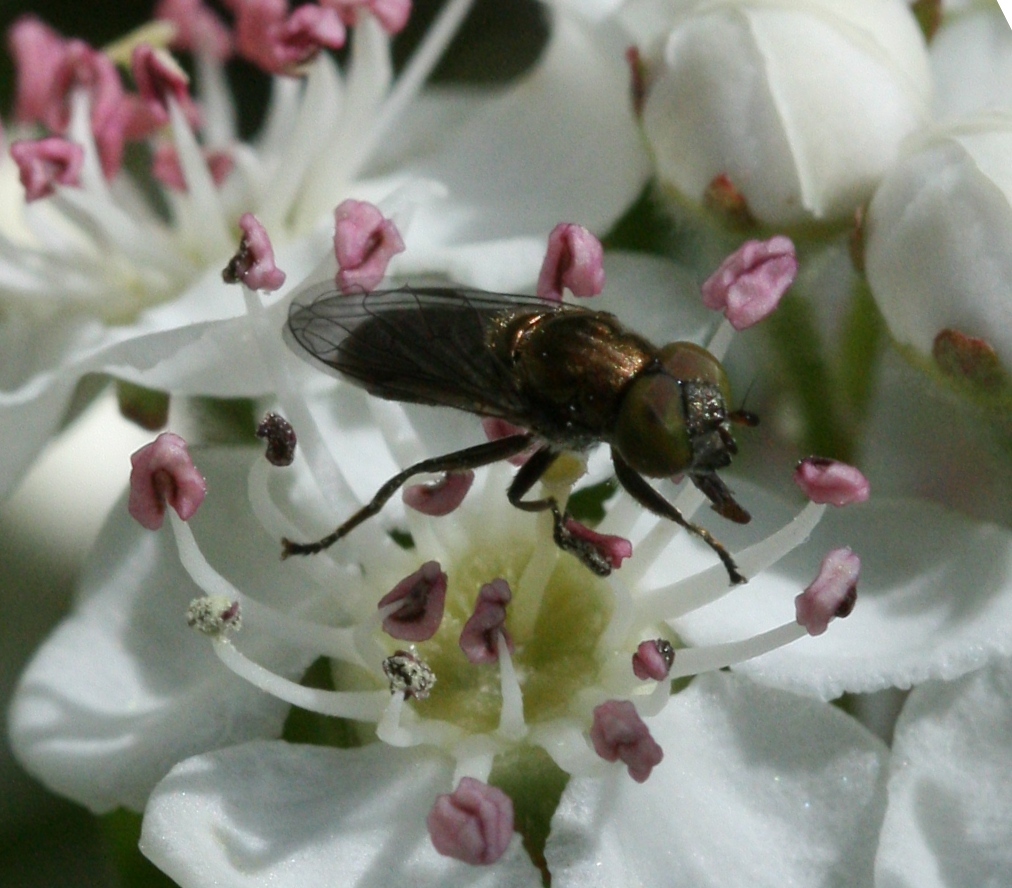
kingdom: Animalia
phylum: Arthropoda
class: Insecta
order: Diptera
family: Syrphidae
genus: Orthonevra
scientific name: Orthonevra splendens
